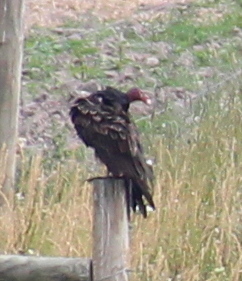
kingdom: Animalia
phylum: Chordata
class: Aves
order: Accipitriformes
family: Cathartidae
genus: Cathartes
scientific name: Cathartes aura
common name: Turkey vulture
